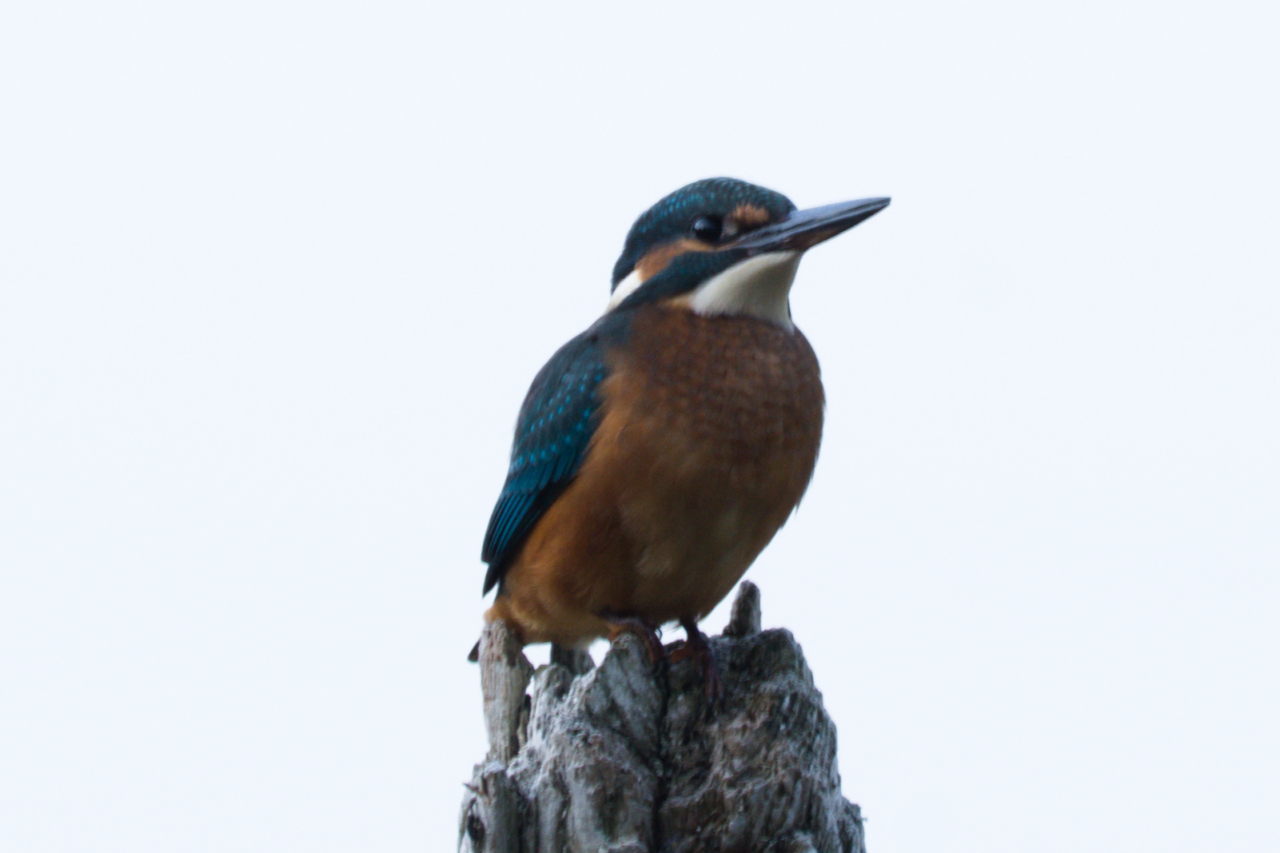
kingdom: Animalia
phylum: Chordata
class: Aves
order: Coraciiformes
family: Alcedinidae
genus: Alcedo
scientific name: Alcedo atthis
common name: Common kingfisher
